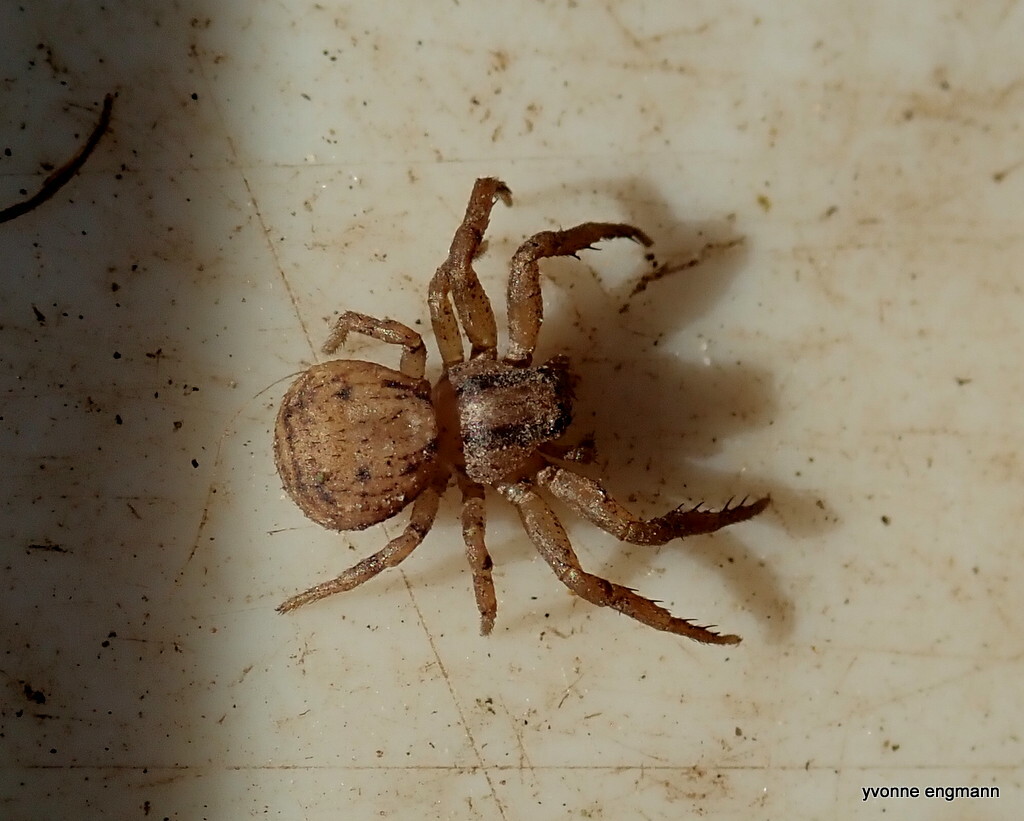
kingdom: Animalia
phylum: Arthropoda
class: Arachnida
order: Araneae
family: Thomisidae
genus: Ozyptila
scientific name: Ozyptila trux
